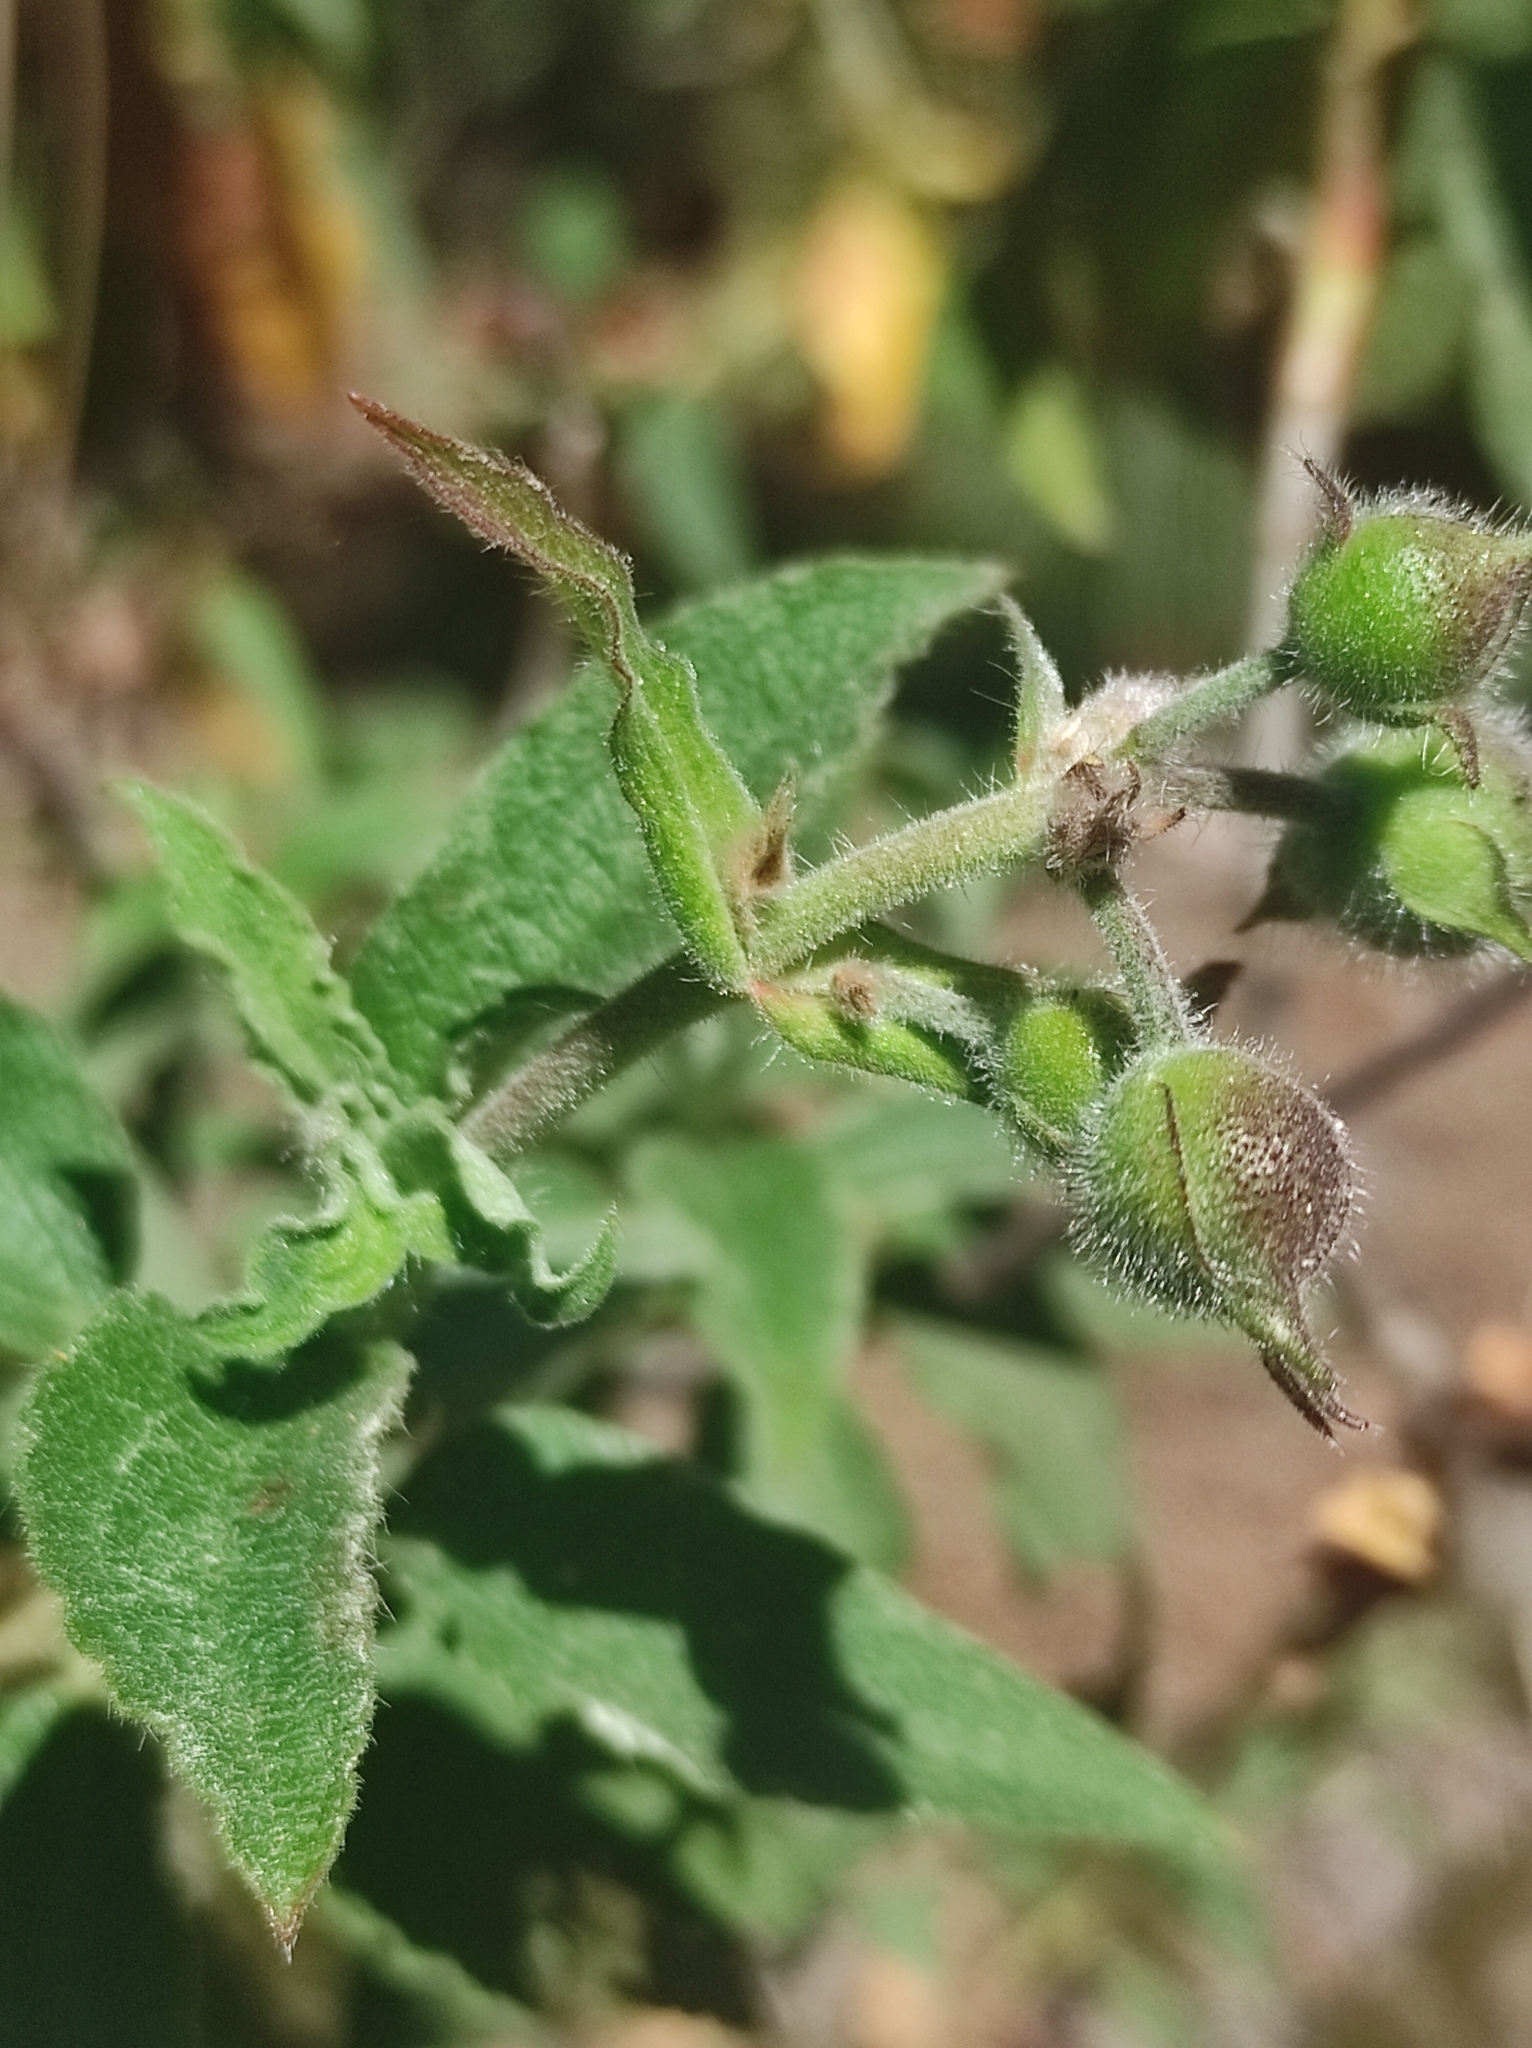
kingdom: Plantae
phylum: Tracheophyta
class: Magnoliopsida
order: Malvales
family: Cistaceae
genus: Cistus
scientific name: Cistus symphytifolius
